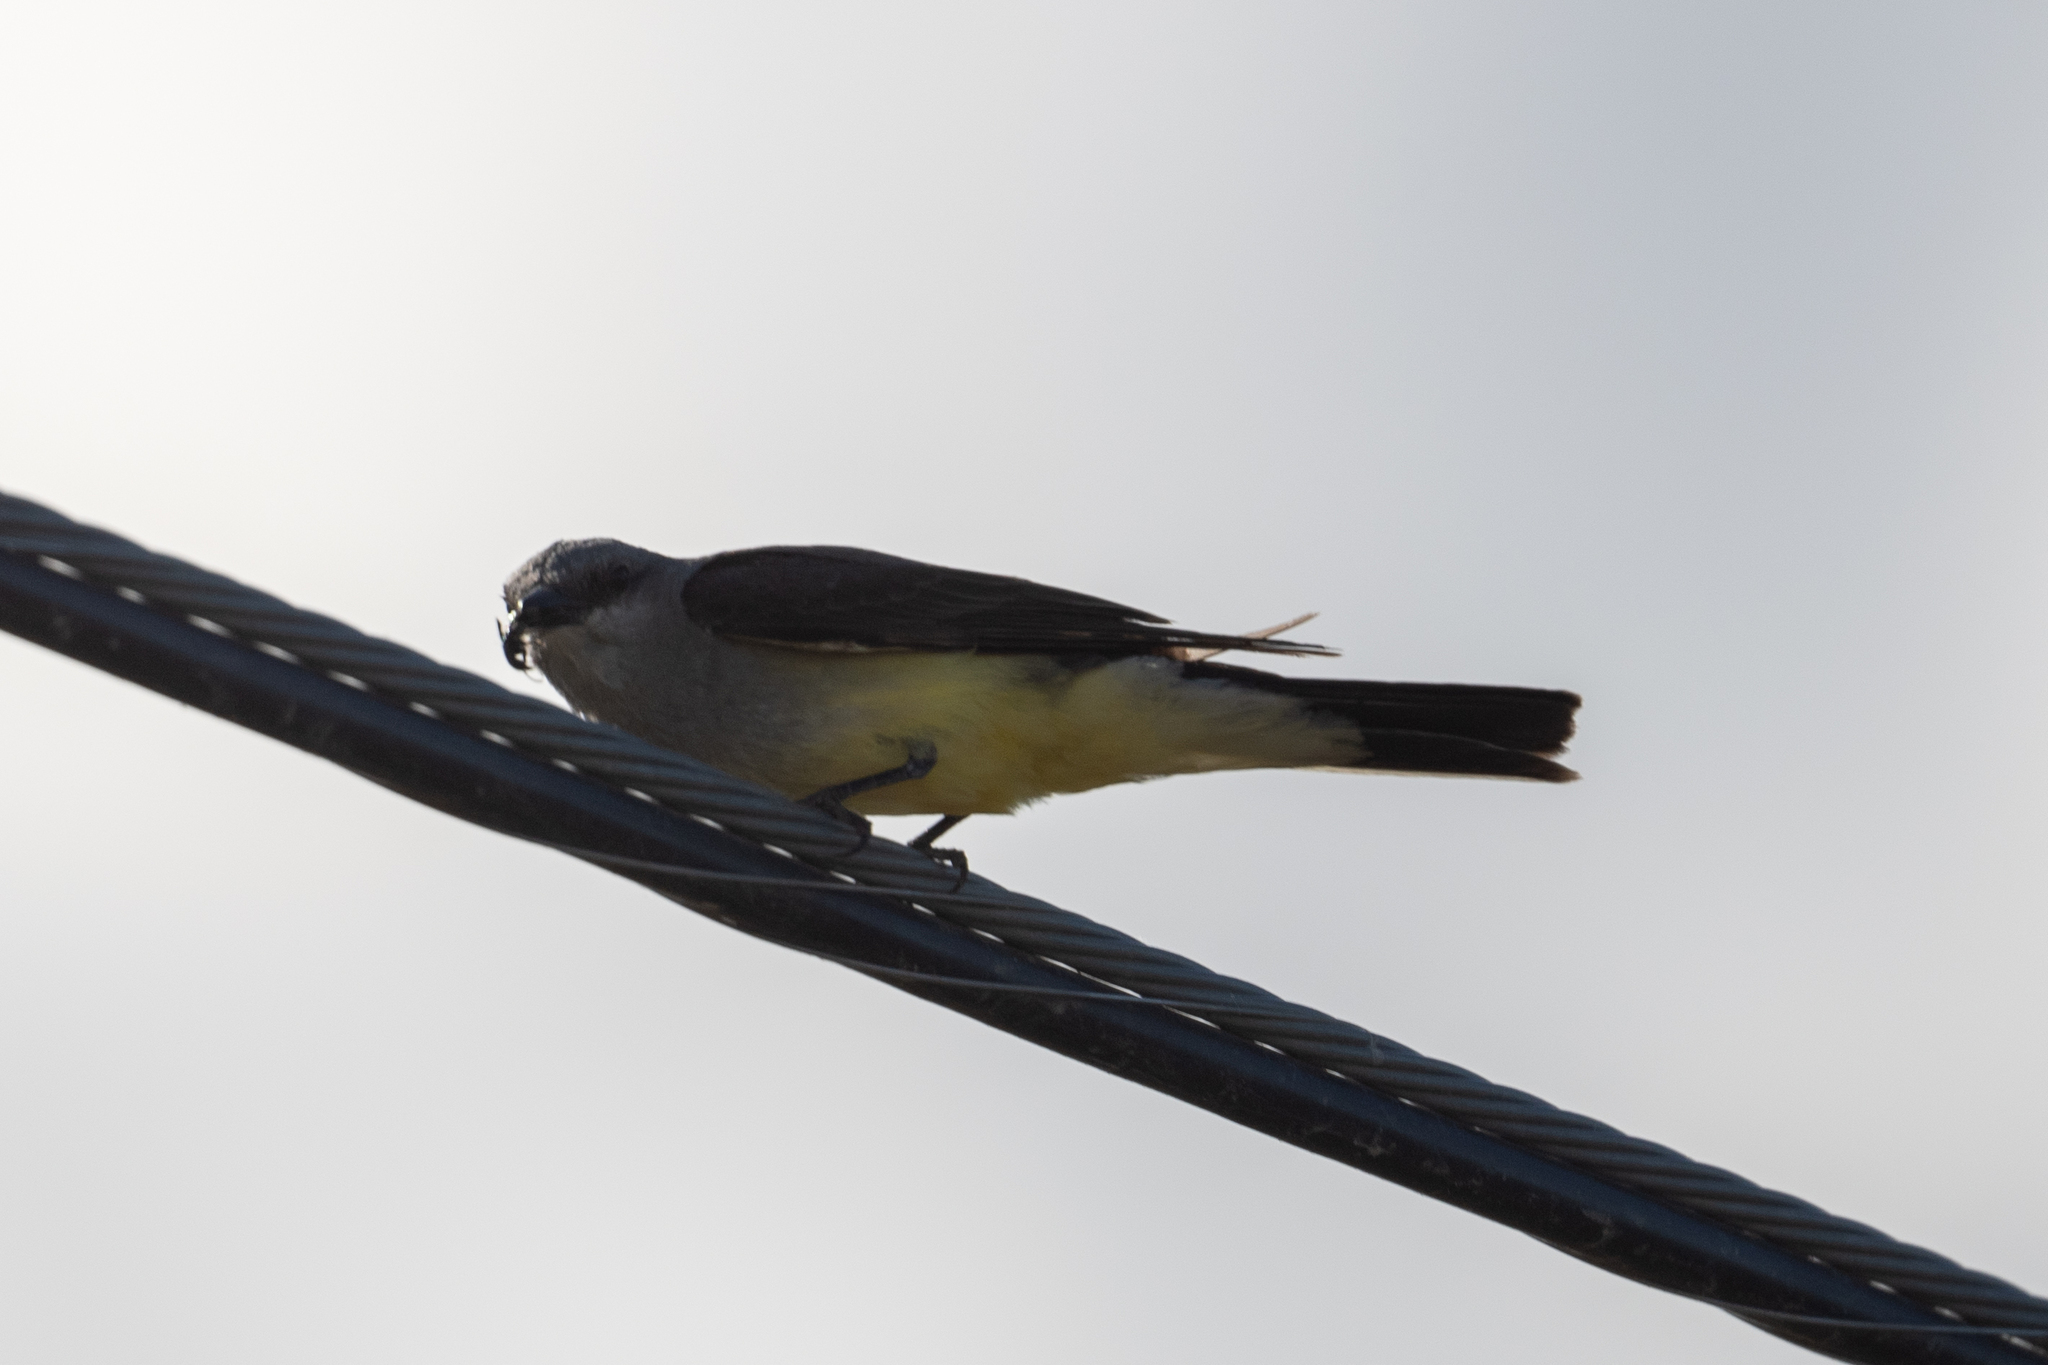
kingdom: Animalia
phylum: Chordata
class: Aves
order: Passeriformes
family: Tyrannidae
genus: Tyrannus
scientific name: Tyrannus verticalis
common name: Western kingbird
